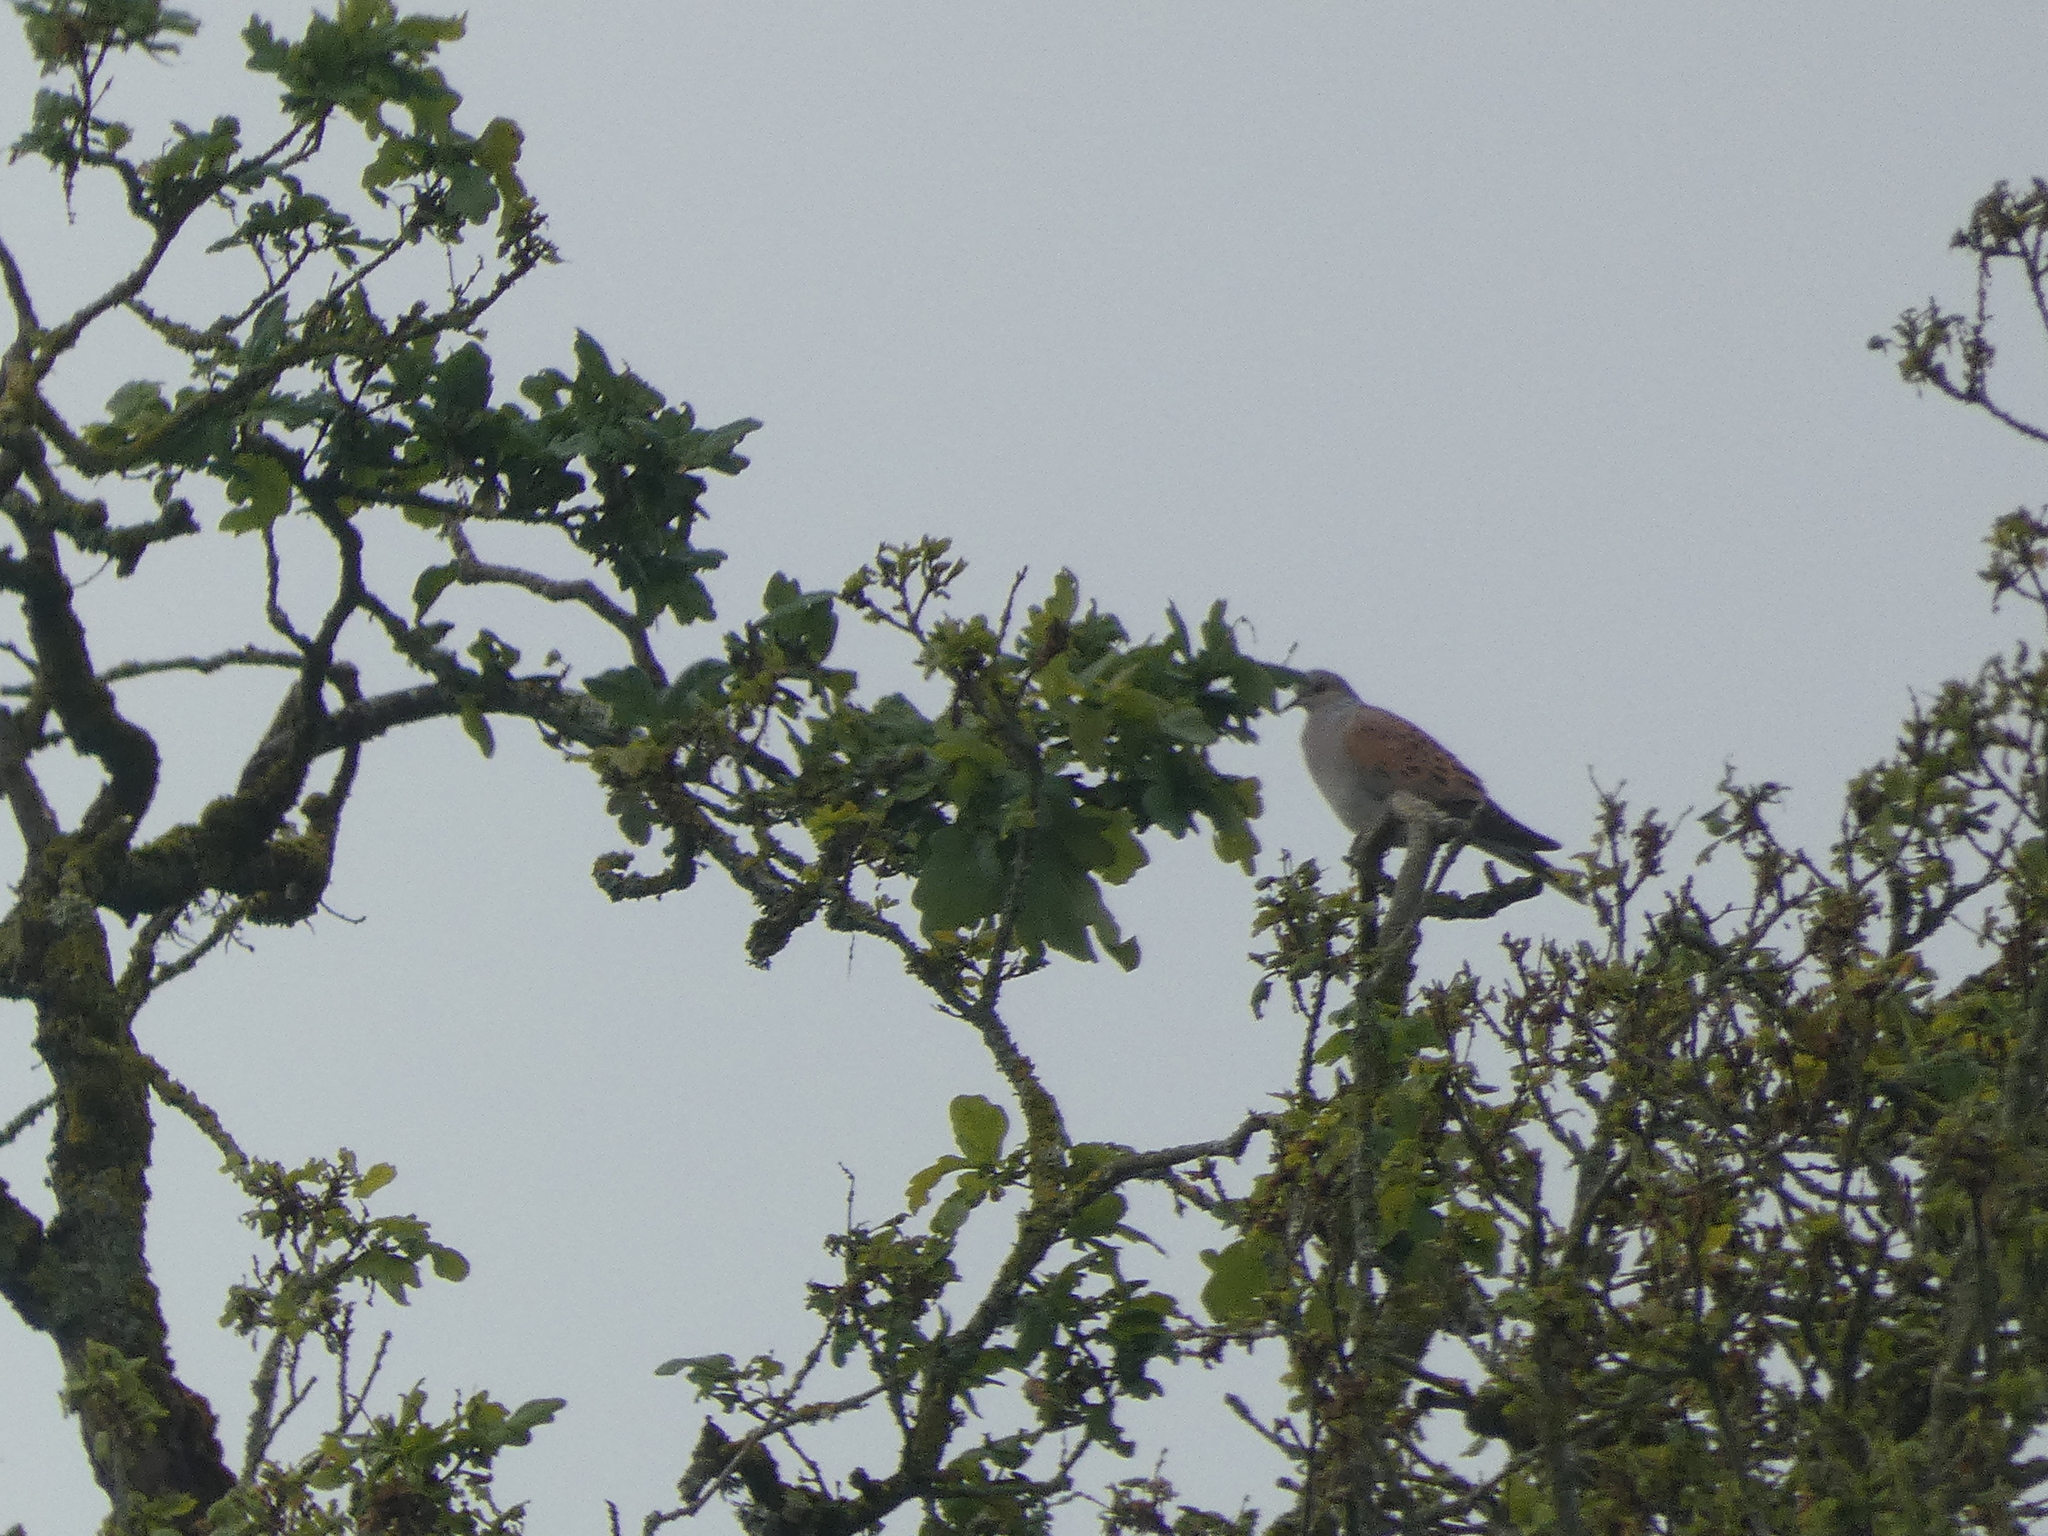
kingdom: Animalia
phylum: Chordata
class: Aves
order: Columbiformes
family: Columbidae
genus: Streptopelia
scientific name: Streptopelia turtur
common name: European turtle dove
